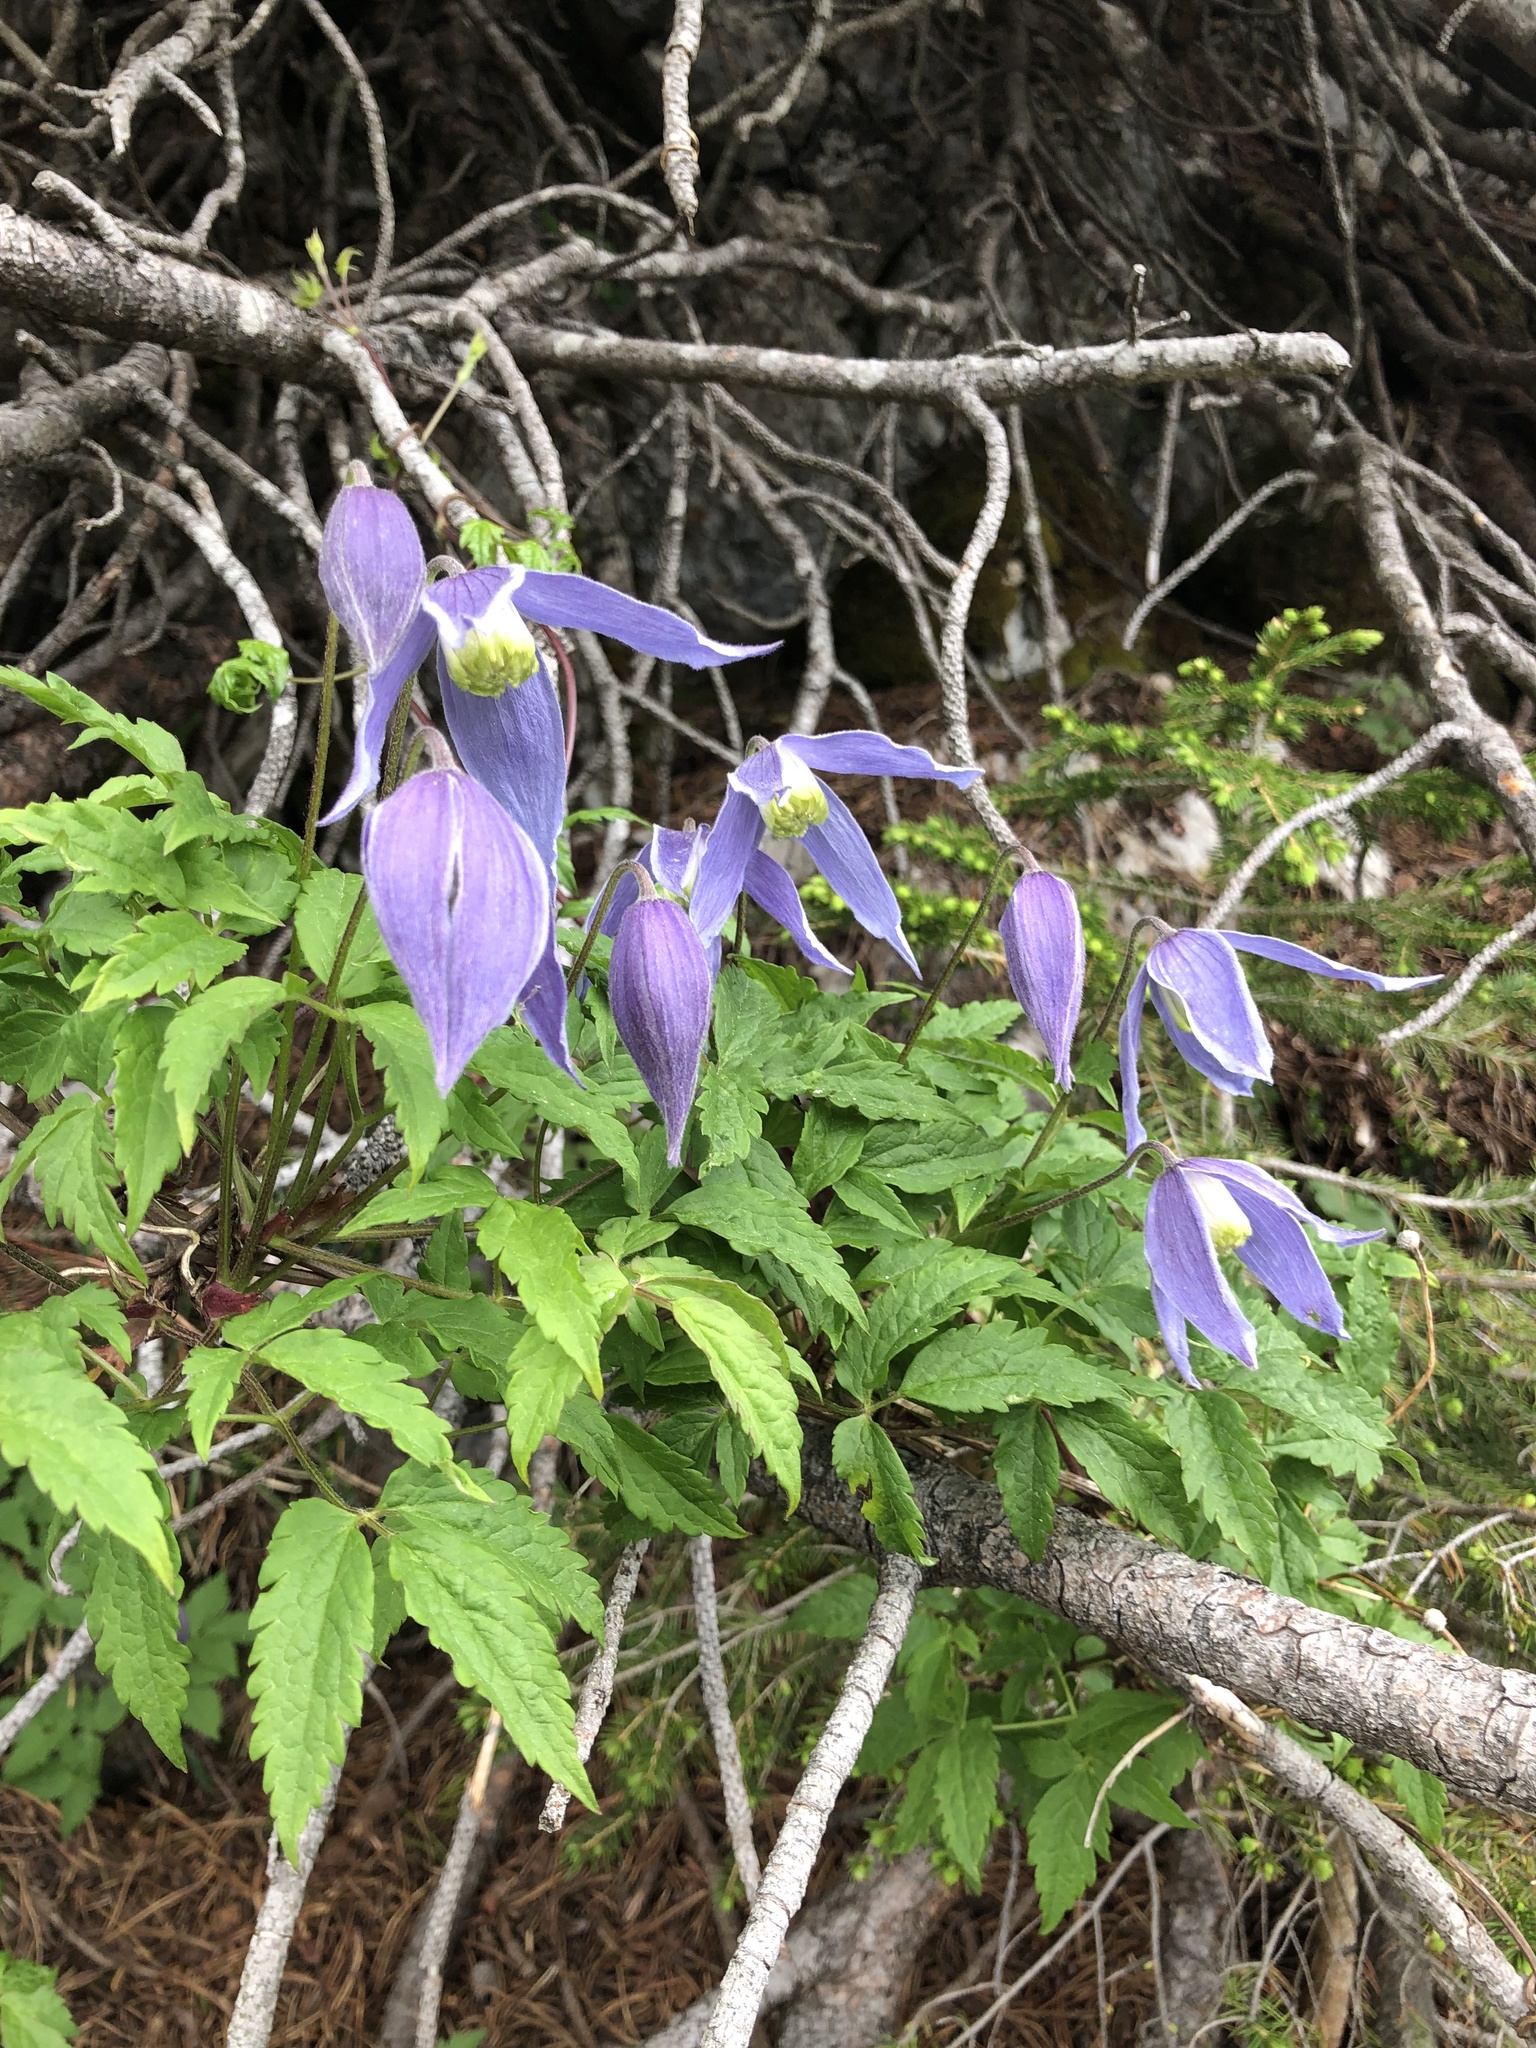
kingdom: Plantae
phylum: Tracheophyta
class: Magnoliopsida
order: Ranunculales
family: Ranunculaceae
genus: Clematis
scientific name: Clematis alpina
